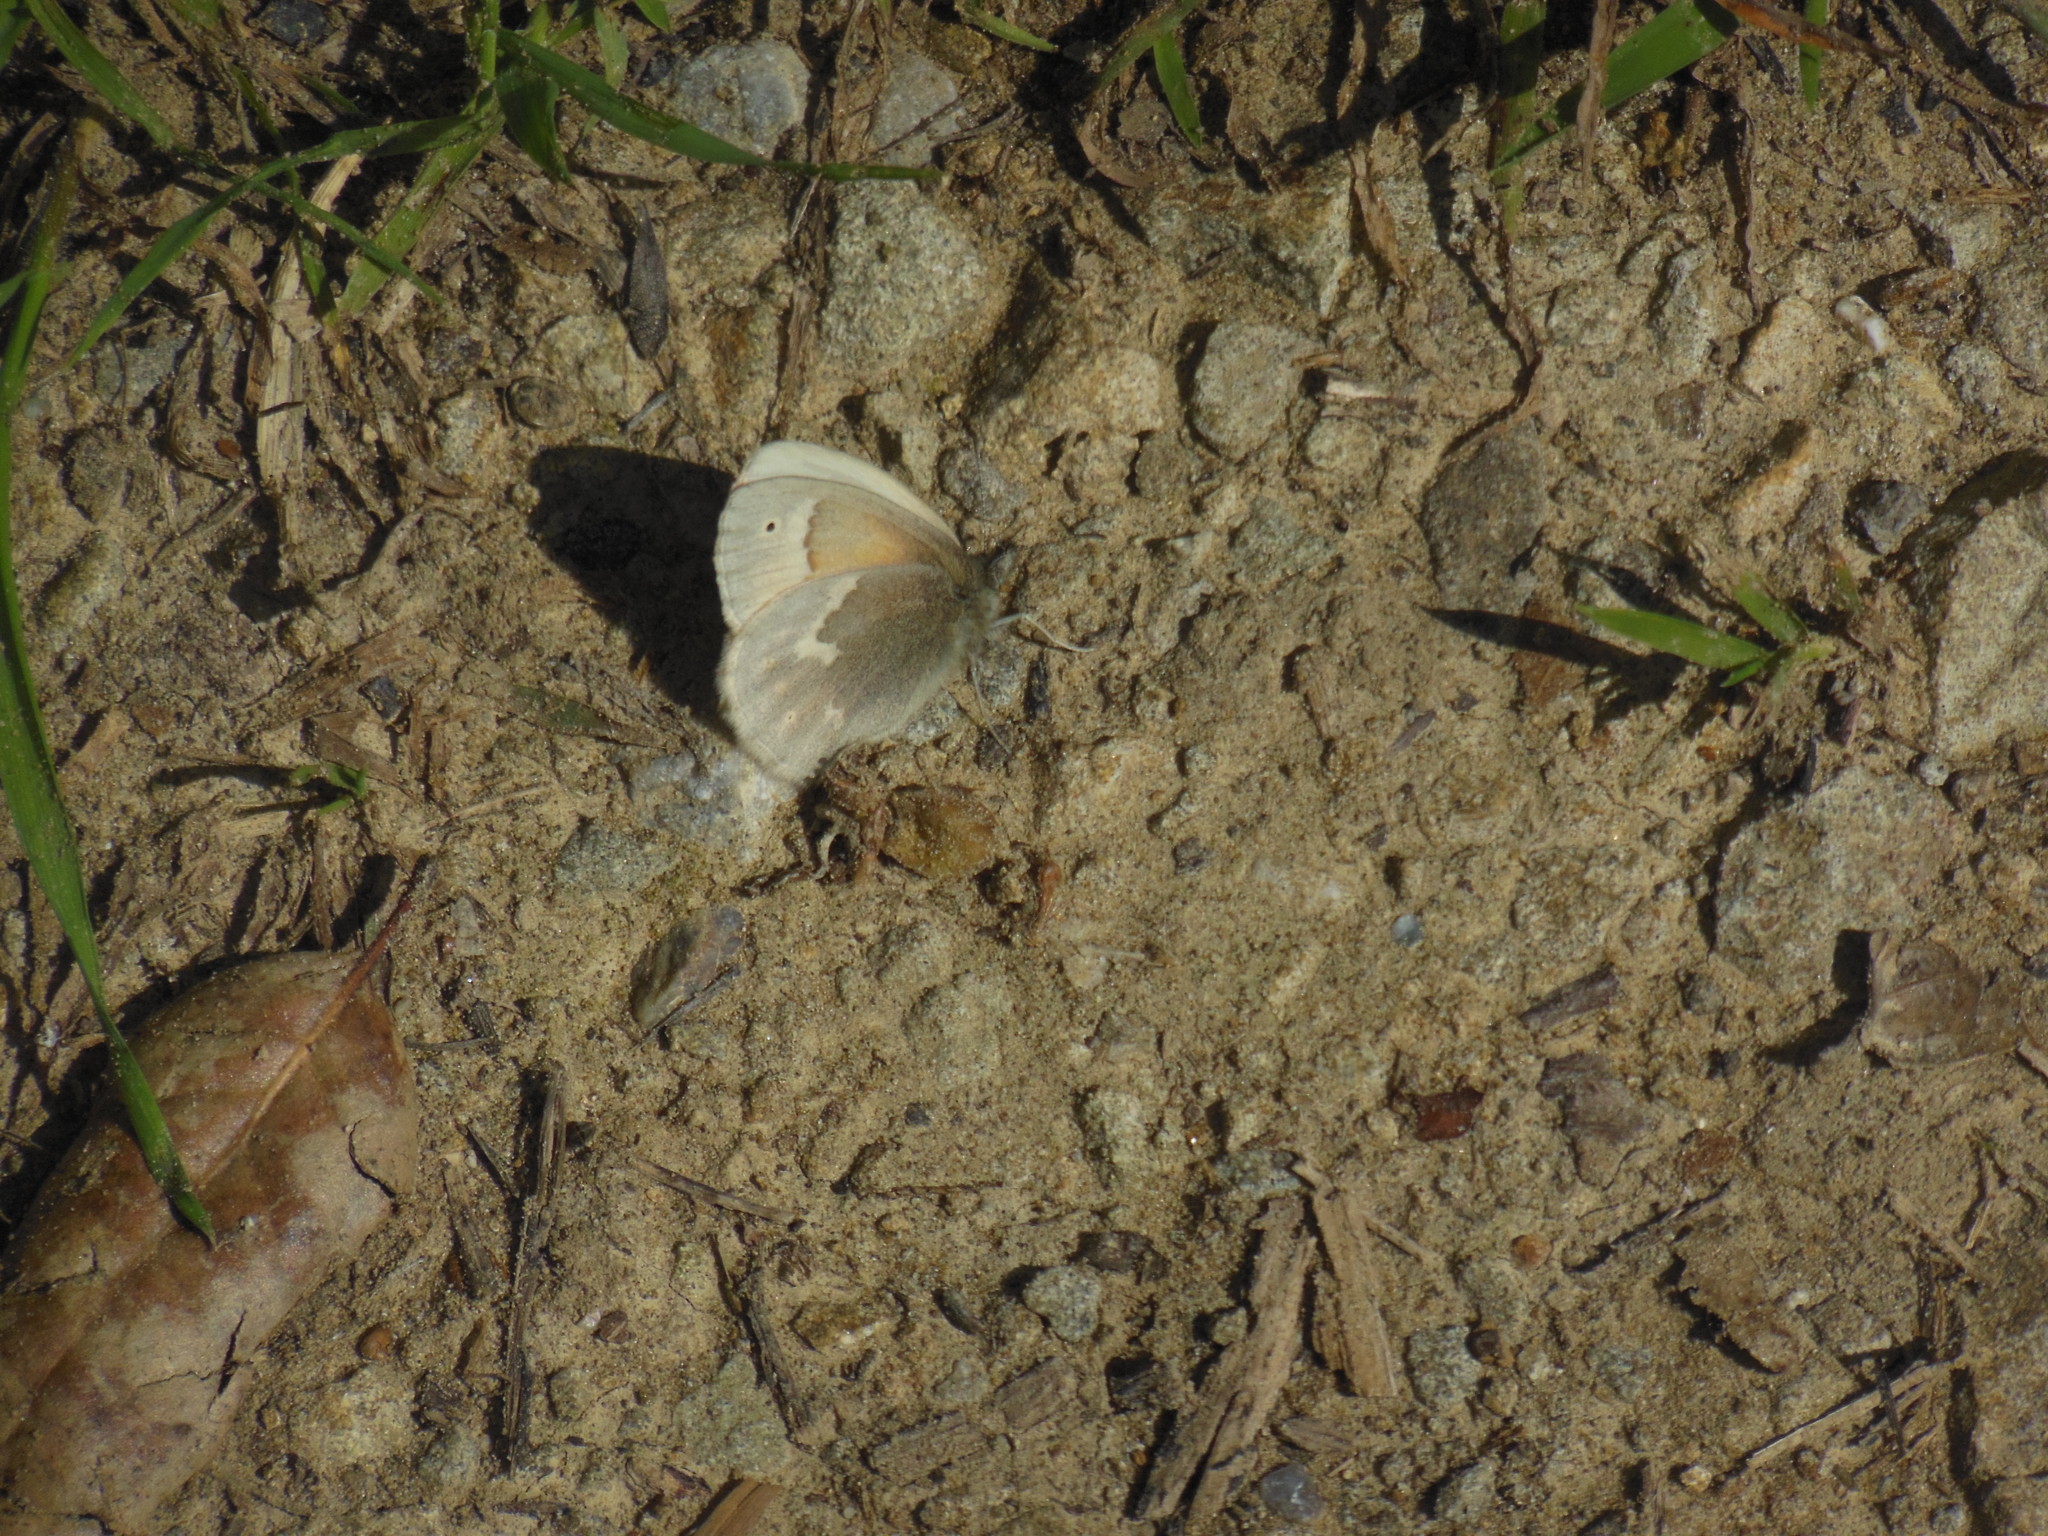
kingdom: Animalia
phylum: Arthropoda
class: Insecta
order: Lepidoptera
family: Nymphalidae
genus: Coenonympha
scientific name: Coenonympha california
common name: Common ringlet
